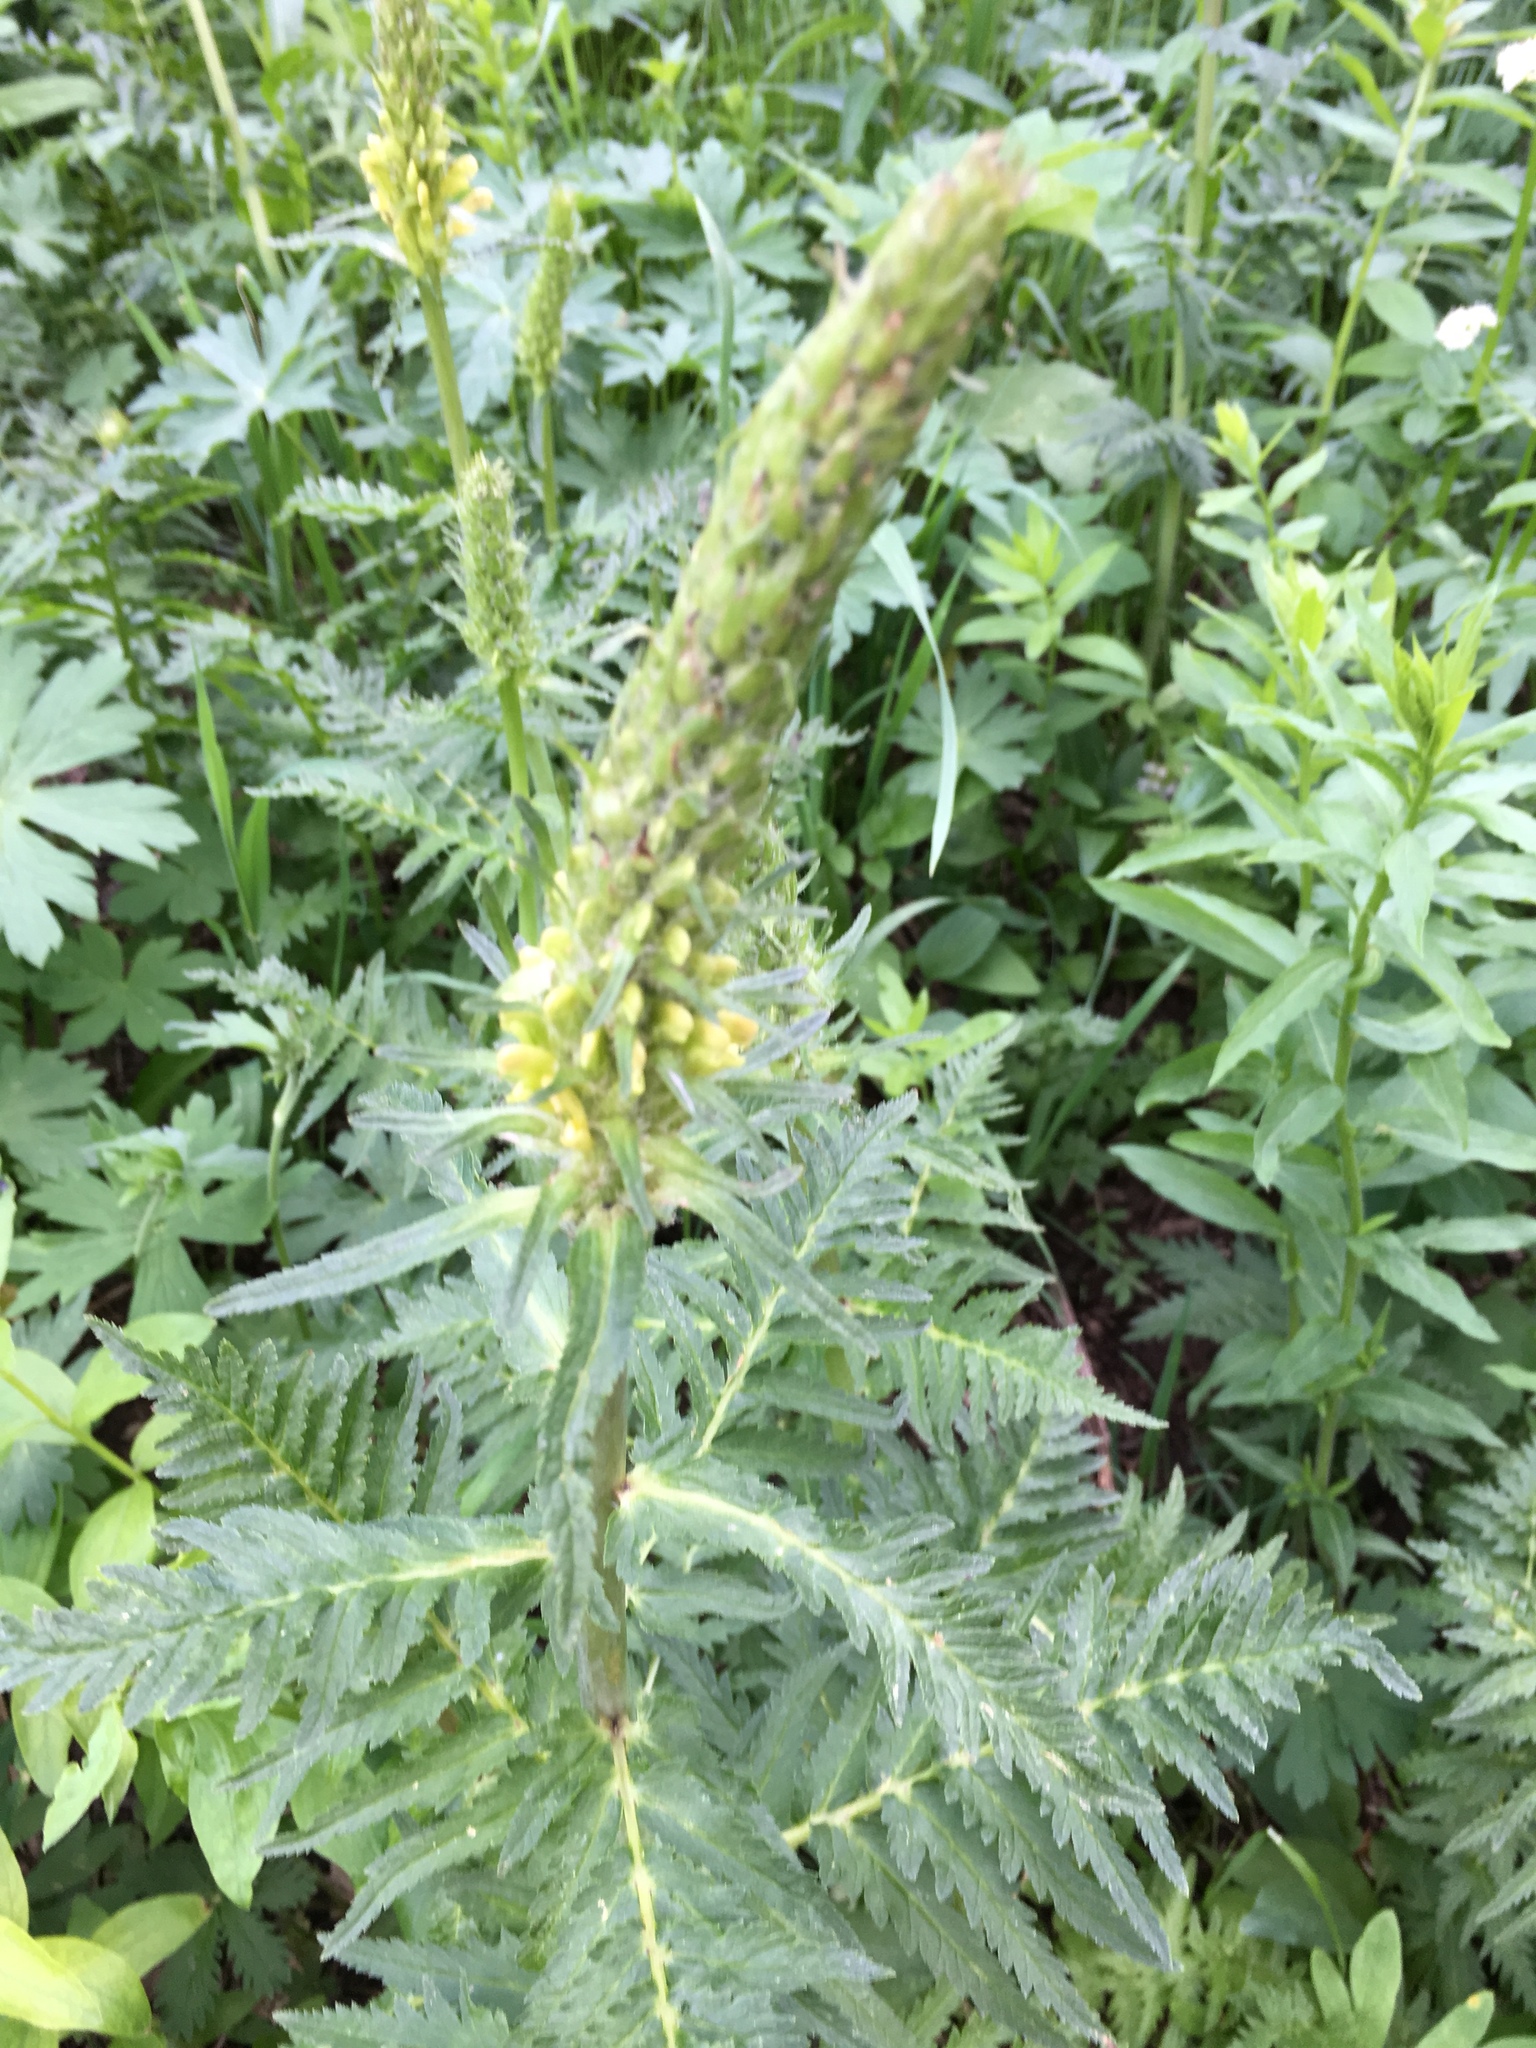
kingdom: Plantae
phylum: Tracheophyta
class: Magnoliopsida
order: Lamiales
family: Orobanchaceae
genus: Pedicularis
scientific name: Pedicularis bracteosa
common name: Bracted lousewort
